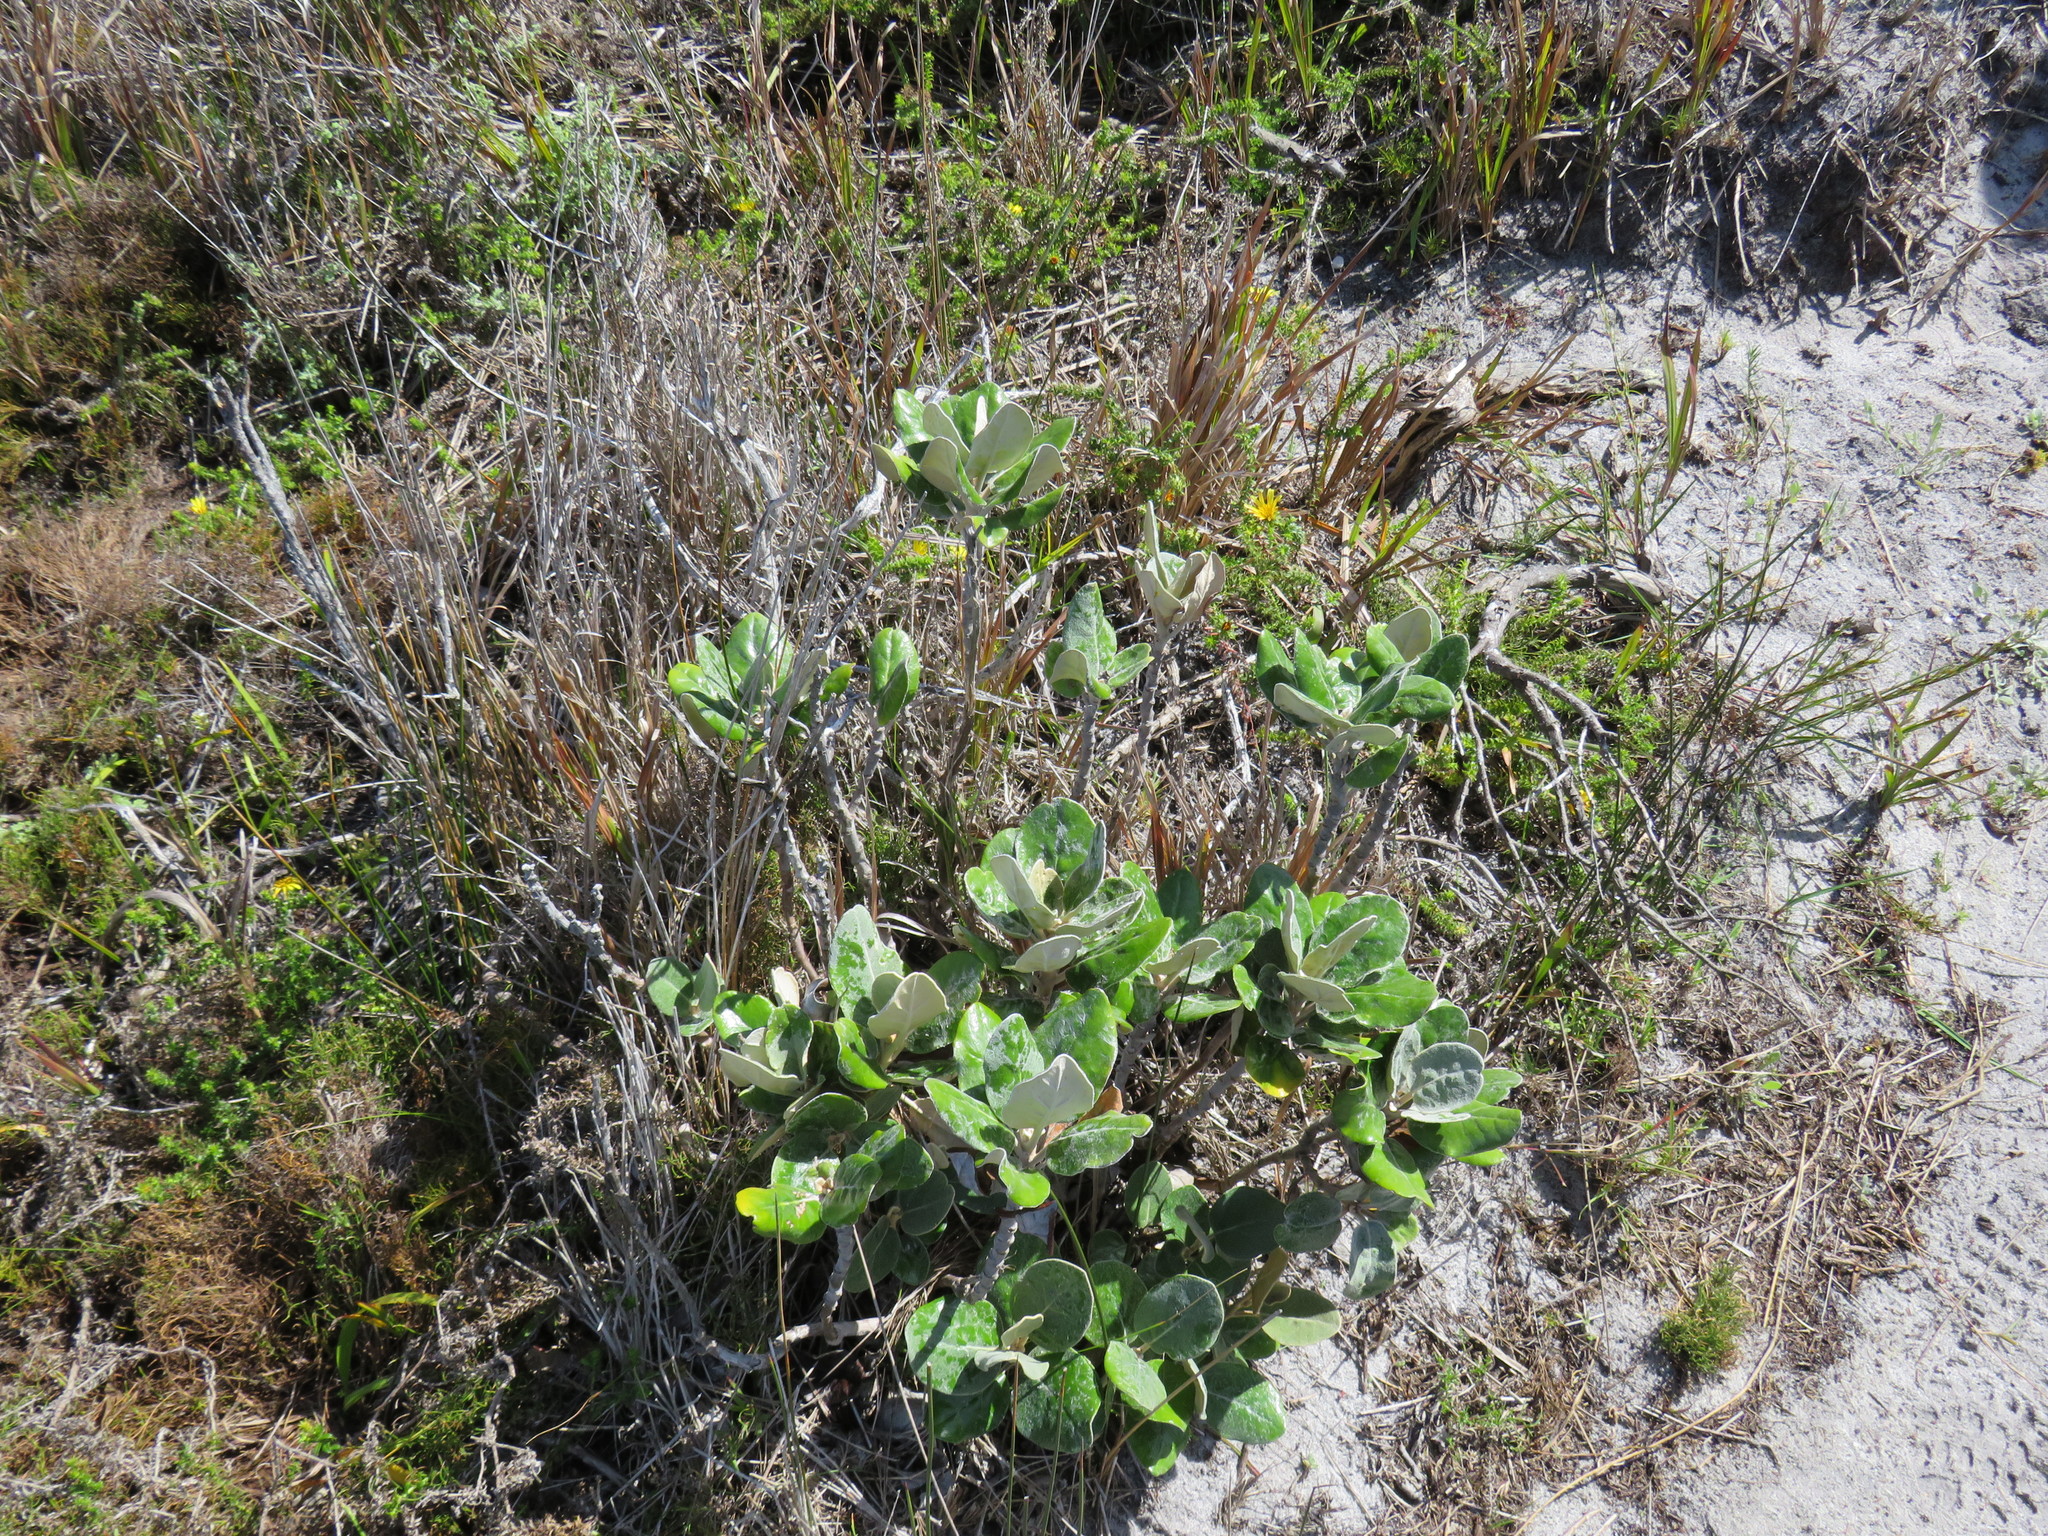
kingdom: Plantae
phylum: Tracheophyta
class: Magnoliopsida
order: Asterales
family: Asteraceae
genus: Capelio
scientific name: Capelio tabularis
